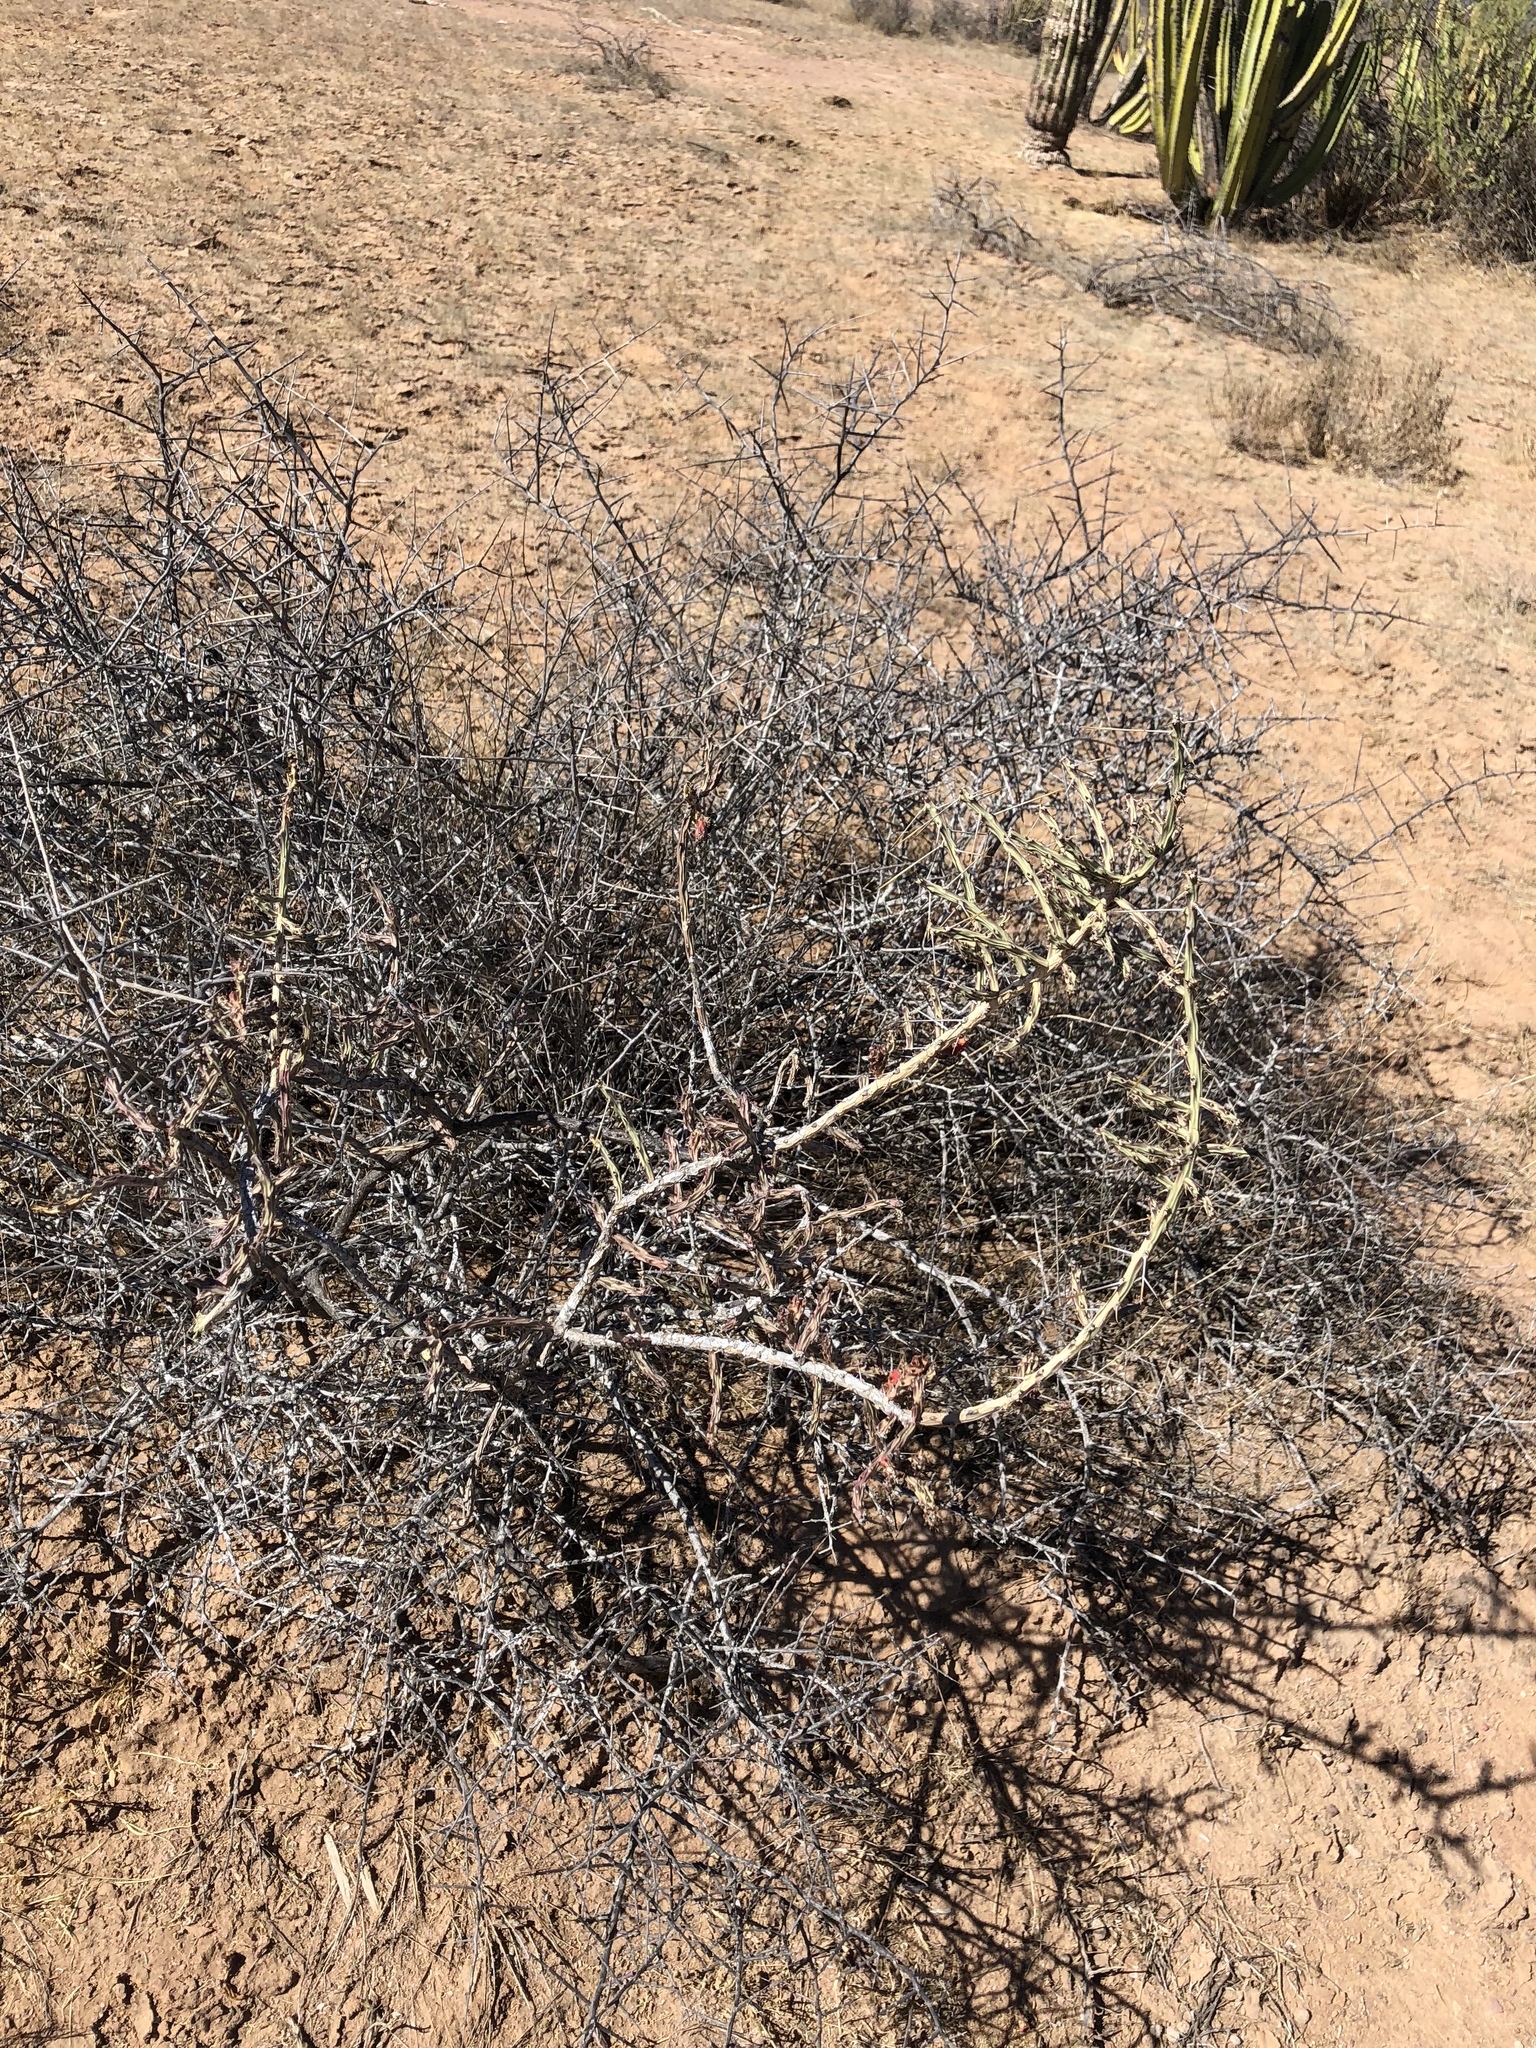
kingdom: Plantae
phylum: Tracheophyta
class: Magnoliopsida
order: Caryophyllales
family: Cactaceae
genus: Cylindropuntia
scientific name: Cylindropuntia leptocaulis
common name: Christmas cactus
